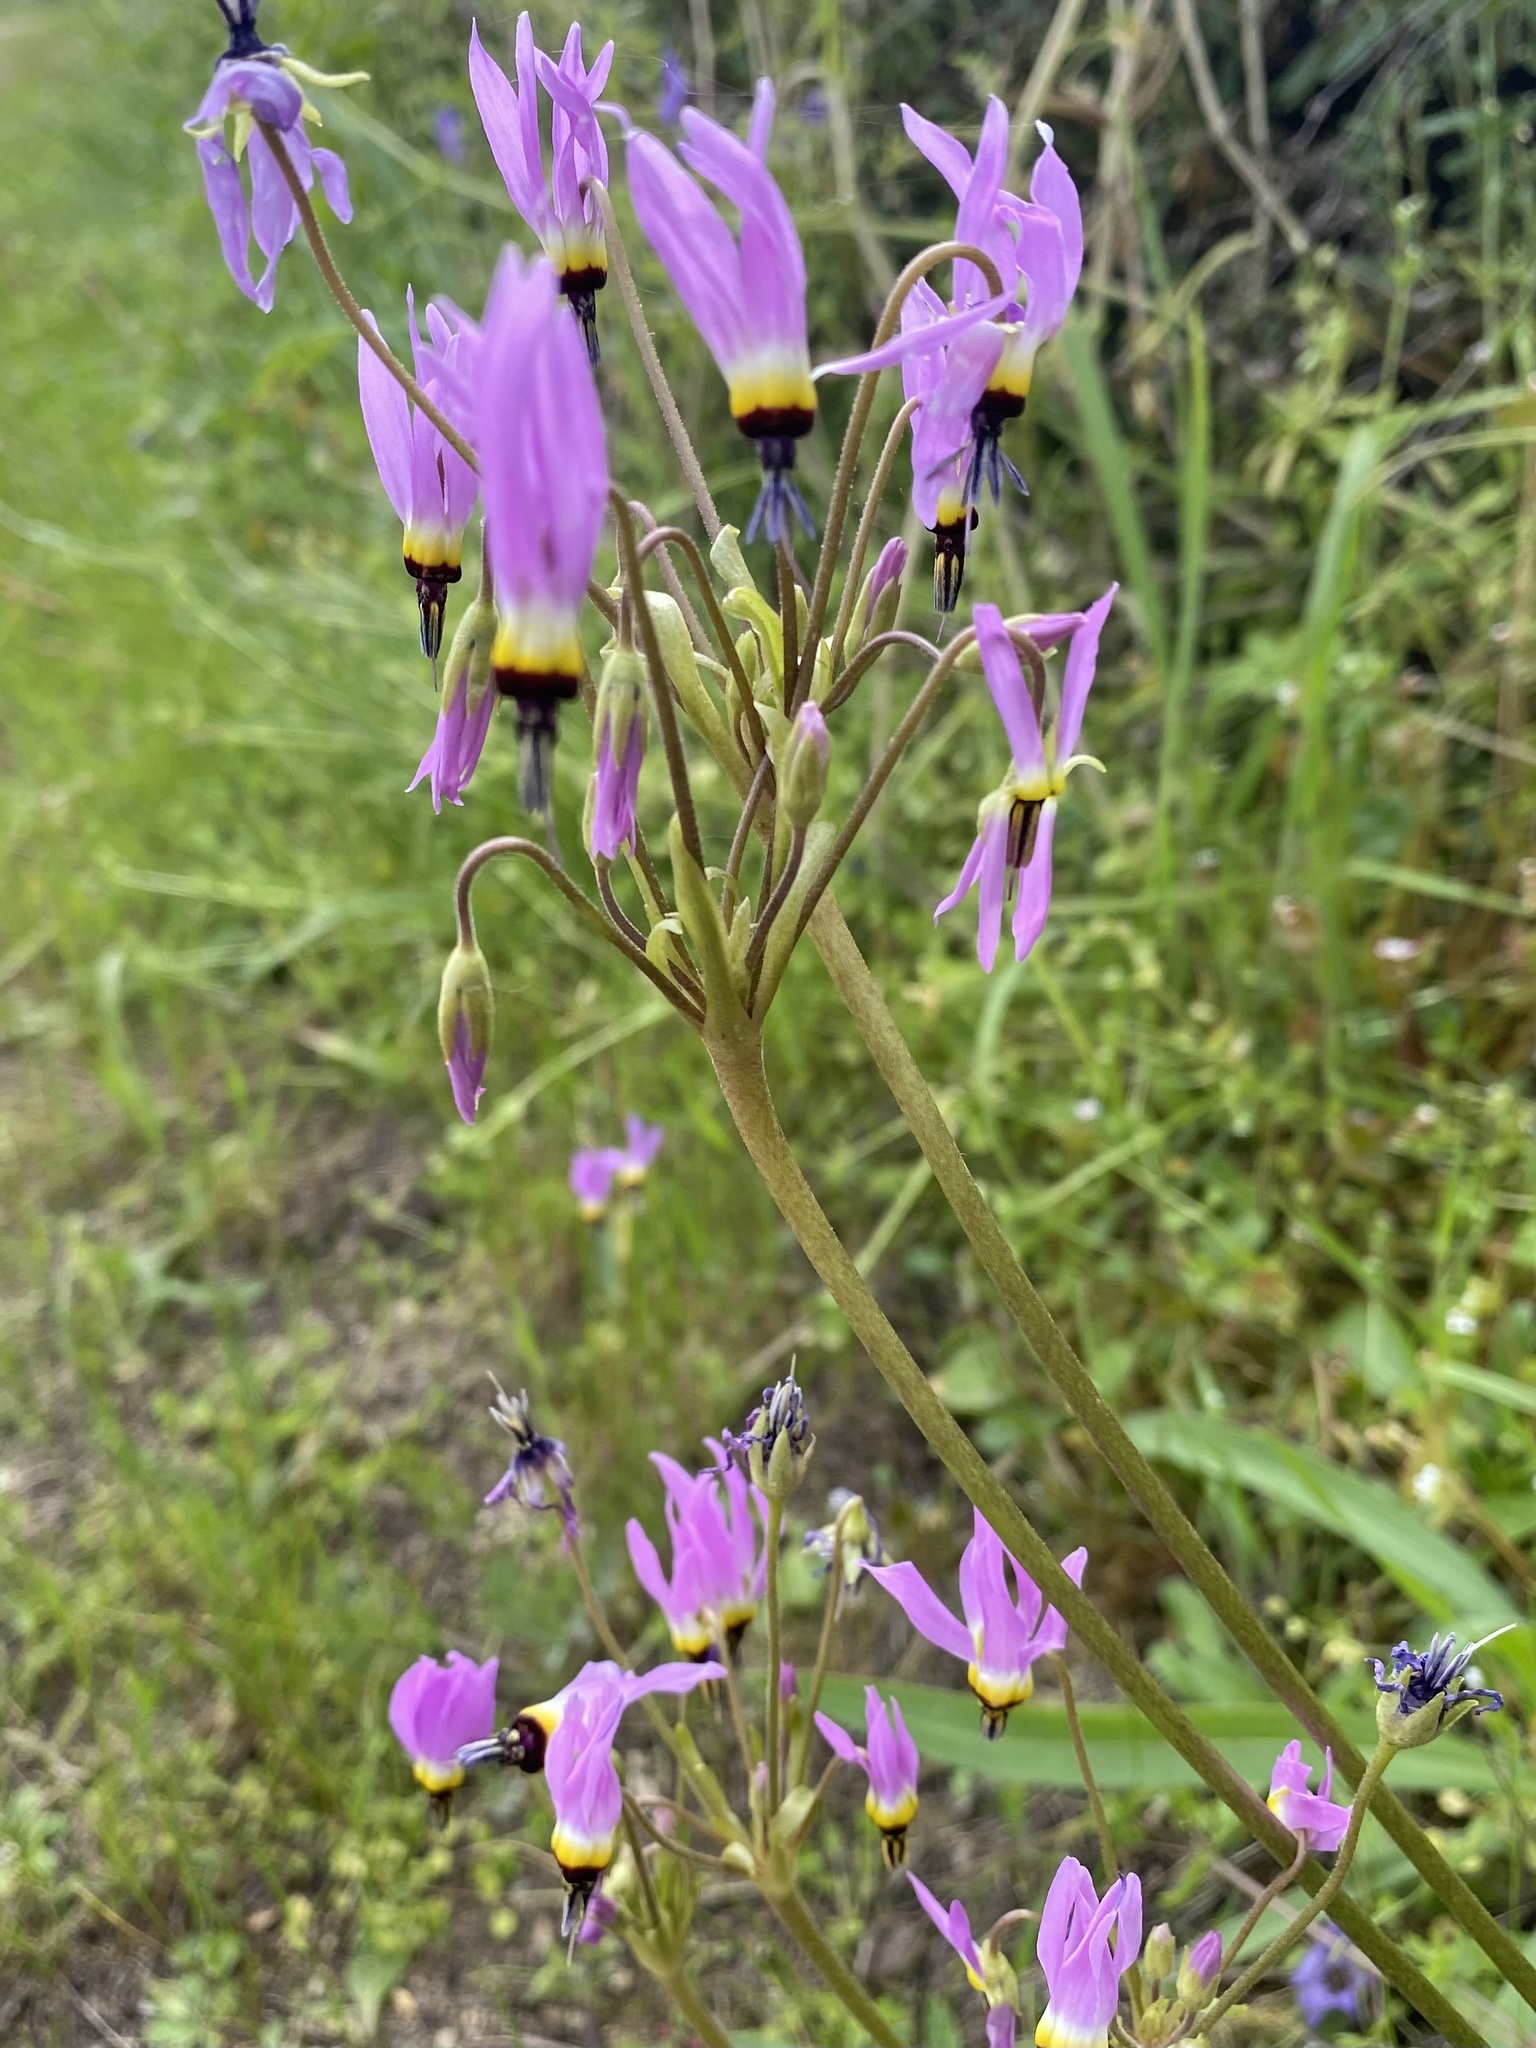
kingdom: Plantae
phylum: Tracheophyta
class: Magnoliopsida
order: Ericales
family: Primulaceae
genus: Dodecatheon
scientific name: Dodecatheon clevelandii
